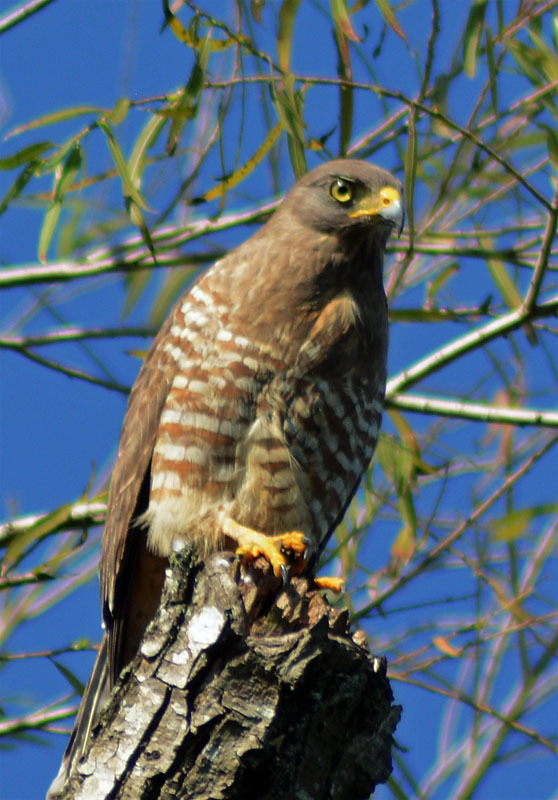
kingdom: Animalia
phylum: Chordata
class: Aves
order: Accipitriformes
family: Accipitridae
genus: Rupornis
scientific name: Rupornis magnirostris
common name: Roadside hawk
